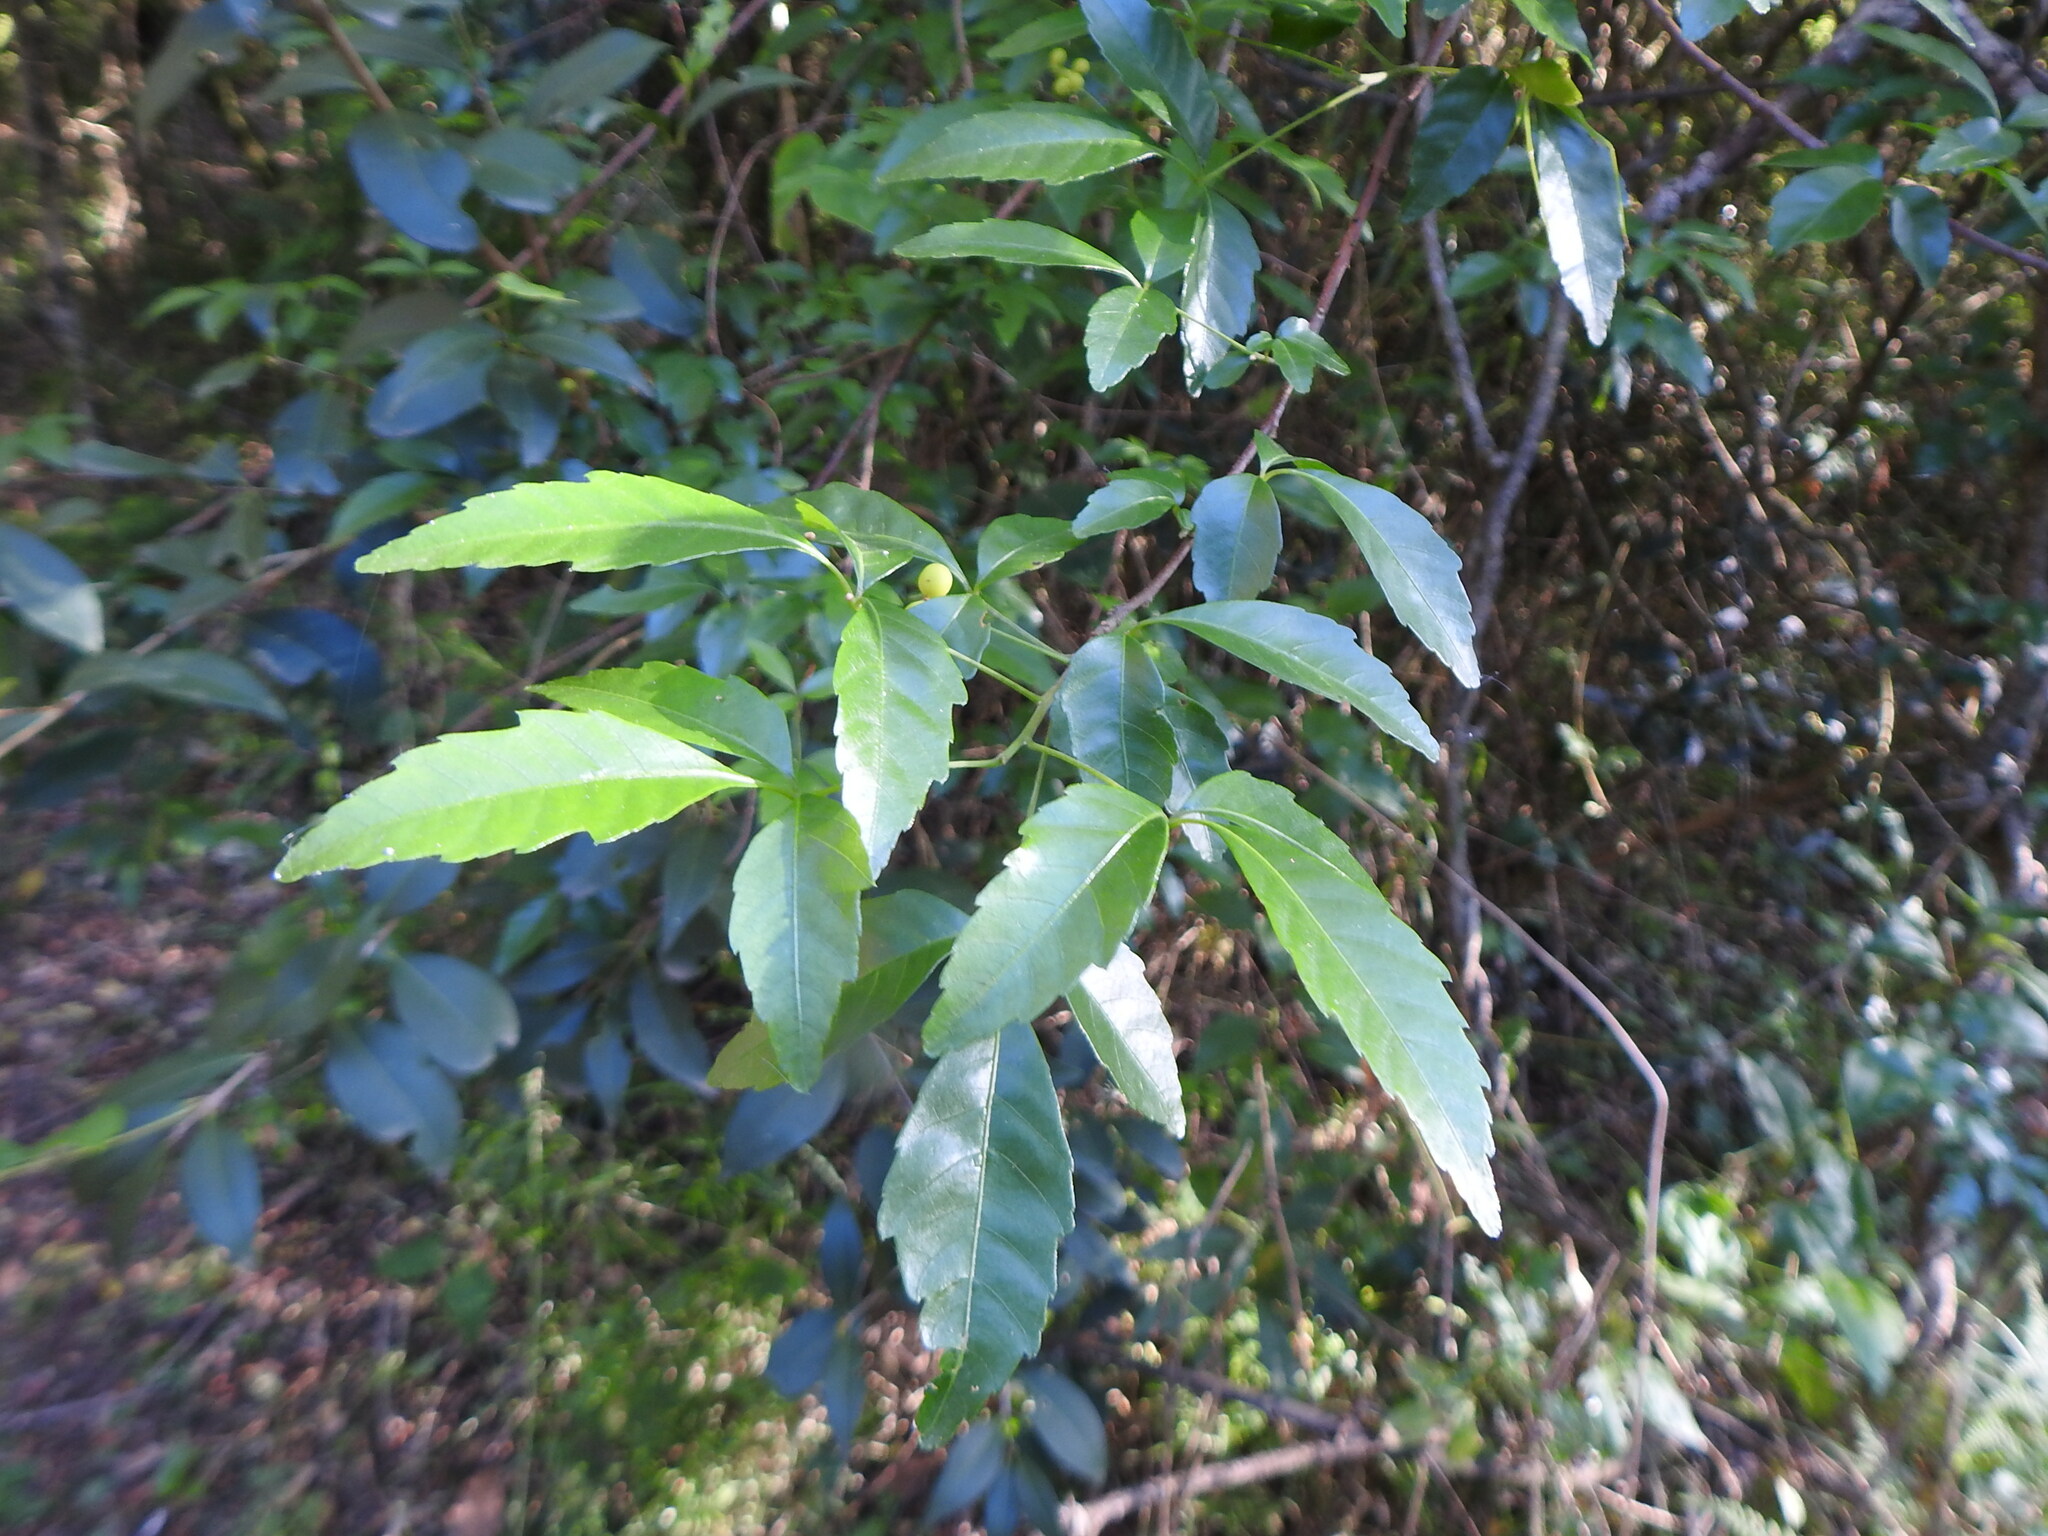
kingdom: Plantae
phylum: Tracheophyta
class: Magnoliopsida
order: Sapindales
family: Sapindaceae
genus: Allophylus
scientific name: Allophylus edulis
